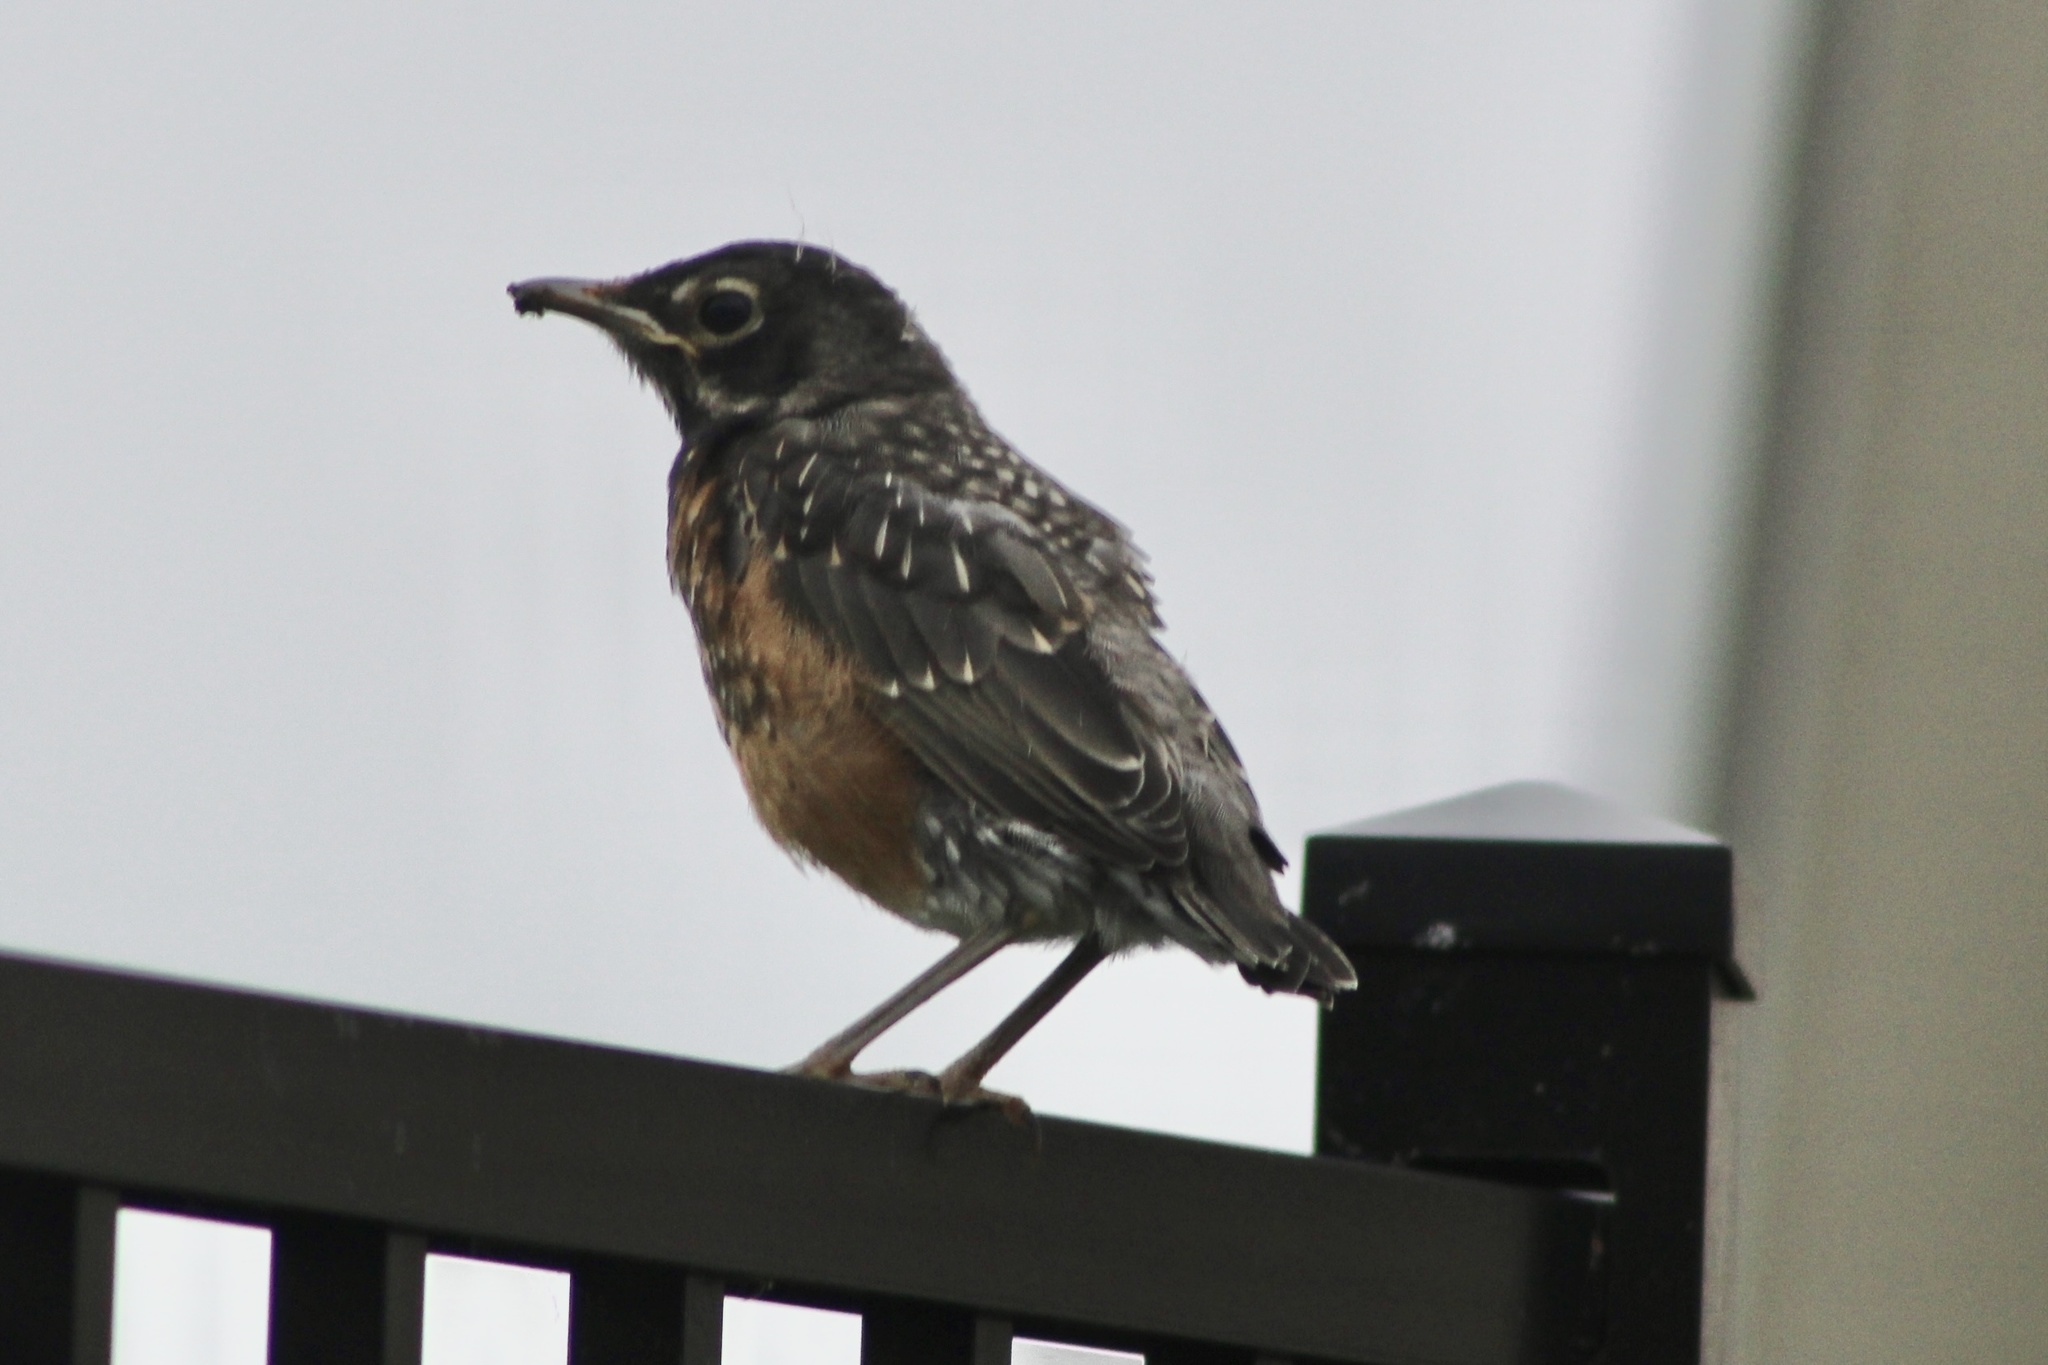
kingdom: Animalia
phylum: Chordata
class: Aves
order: Passeriformes
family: Turdidae
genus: Turdus
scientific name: Turdus migratorius
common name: American robin
